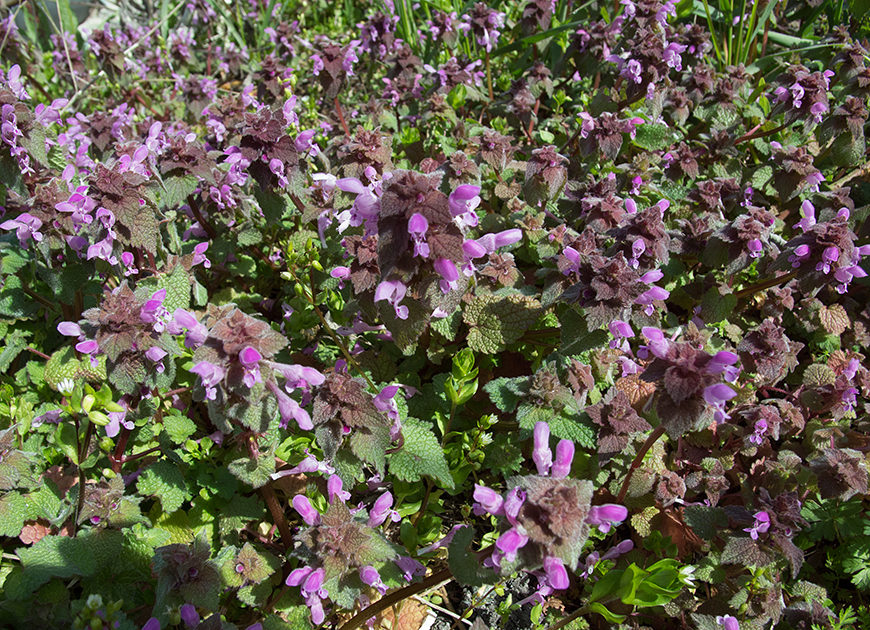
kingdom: Plantae
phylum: Tracheophyta
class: Magnoliopsida
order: Lamiales
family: Lamiaceae
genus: Lamium
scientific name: Lamium purpureum
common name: Red dead-nettle
